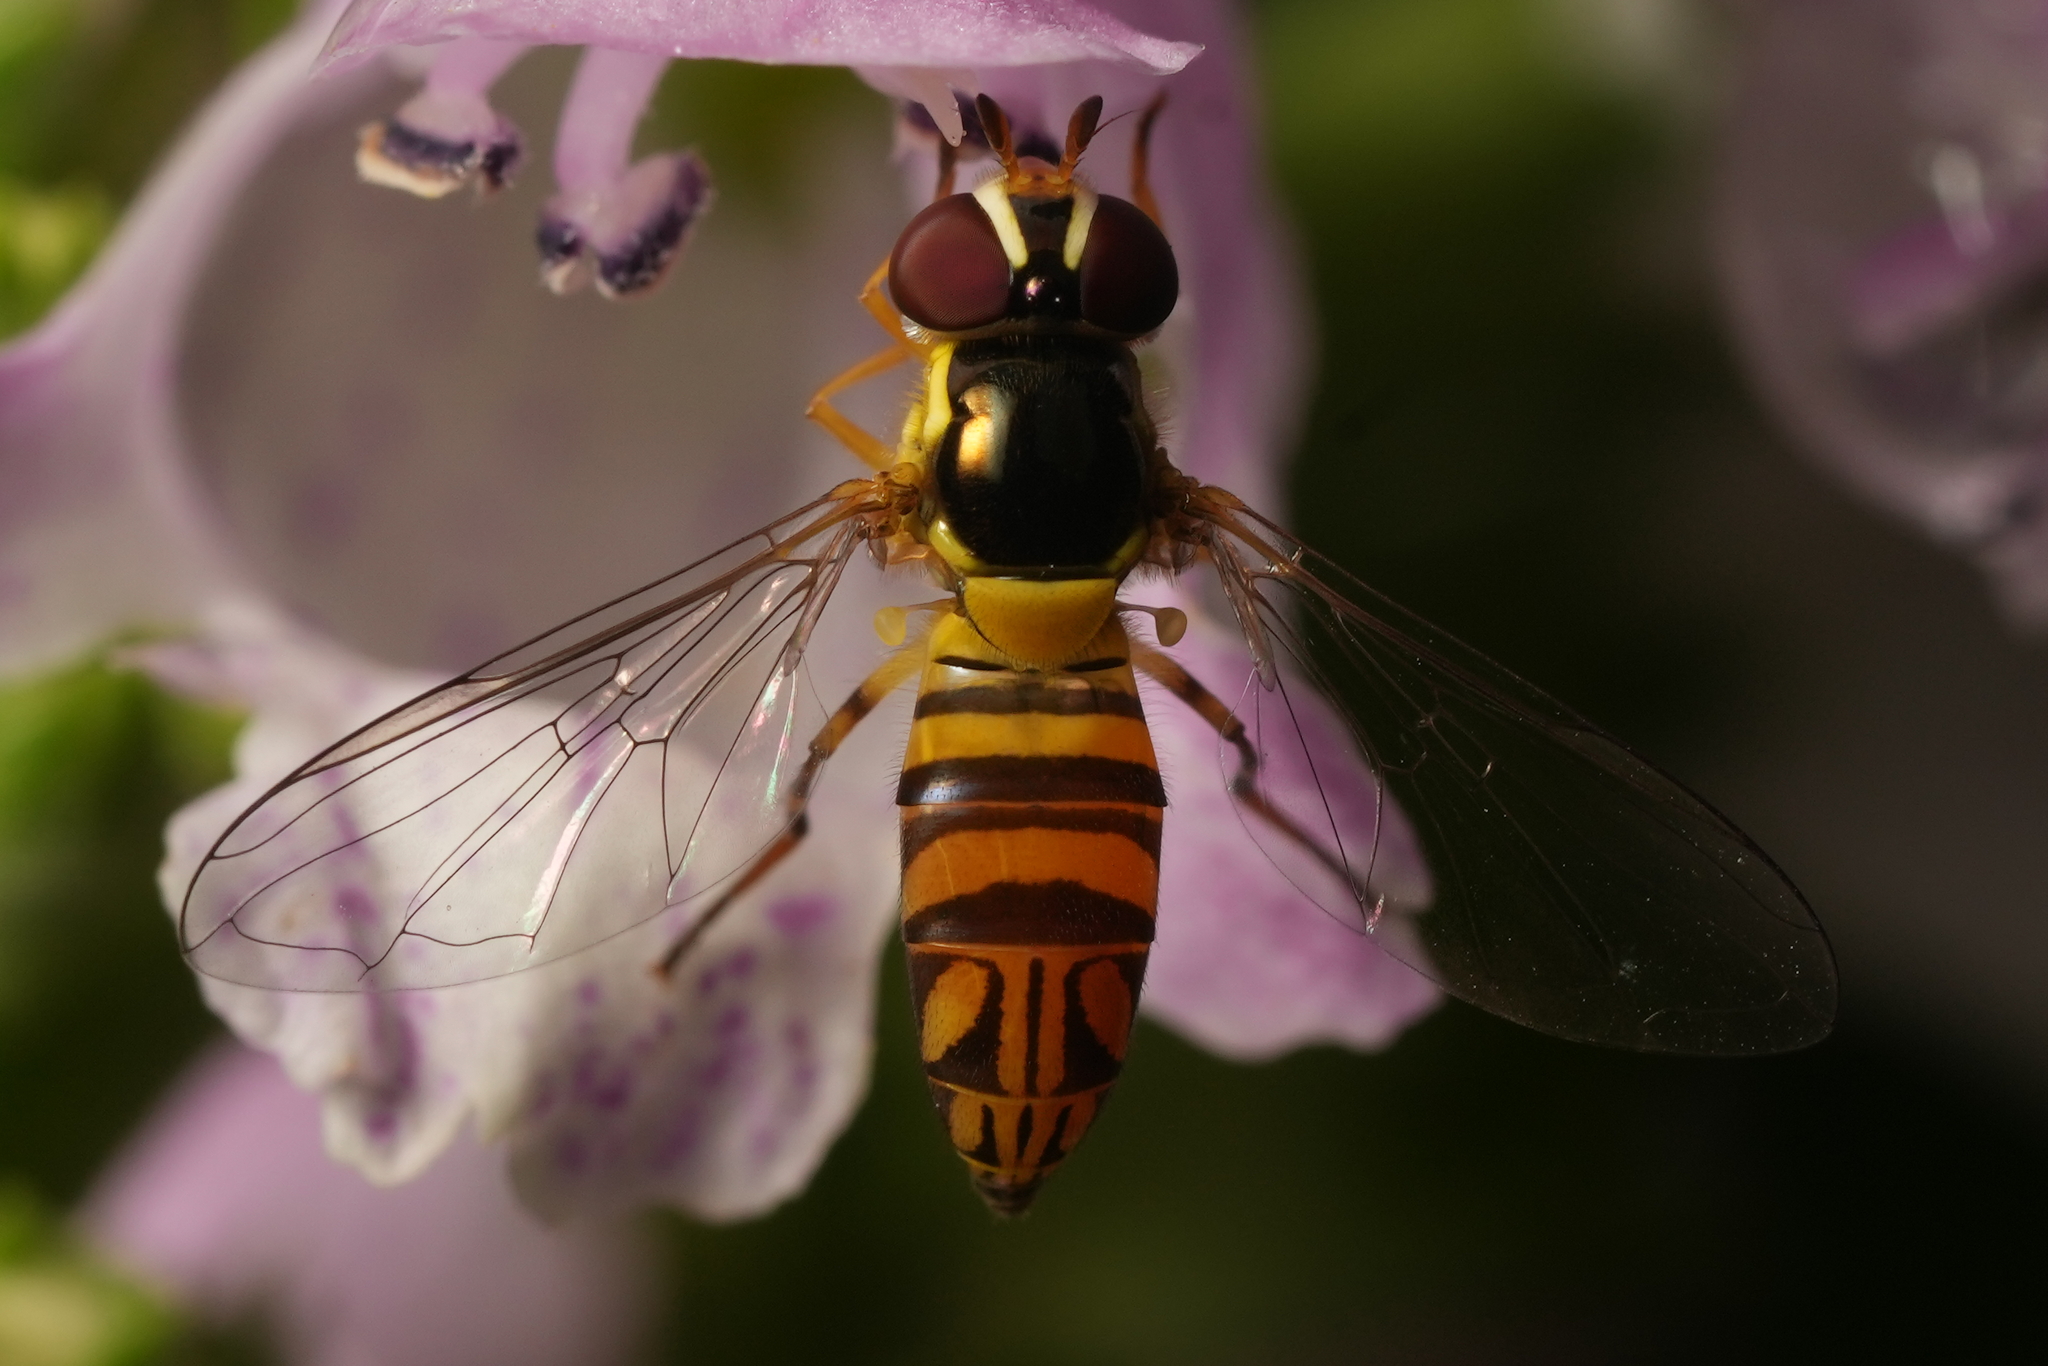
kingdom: Animalia
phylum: Arthropoda
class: Insecta
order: Diptera
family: Syrphidae
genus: Allograpta
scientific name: Allograpta obliqua
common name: Common oblique syrphid
